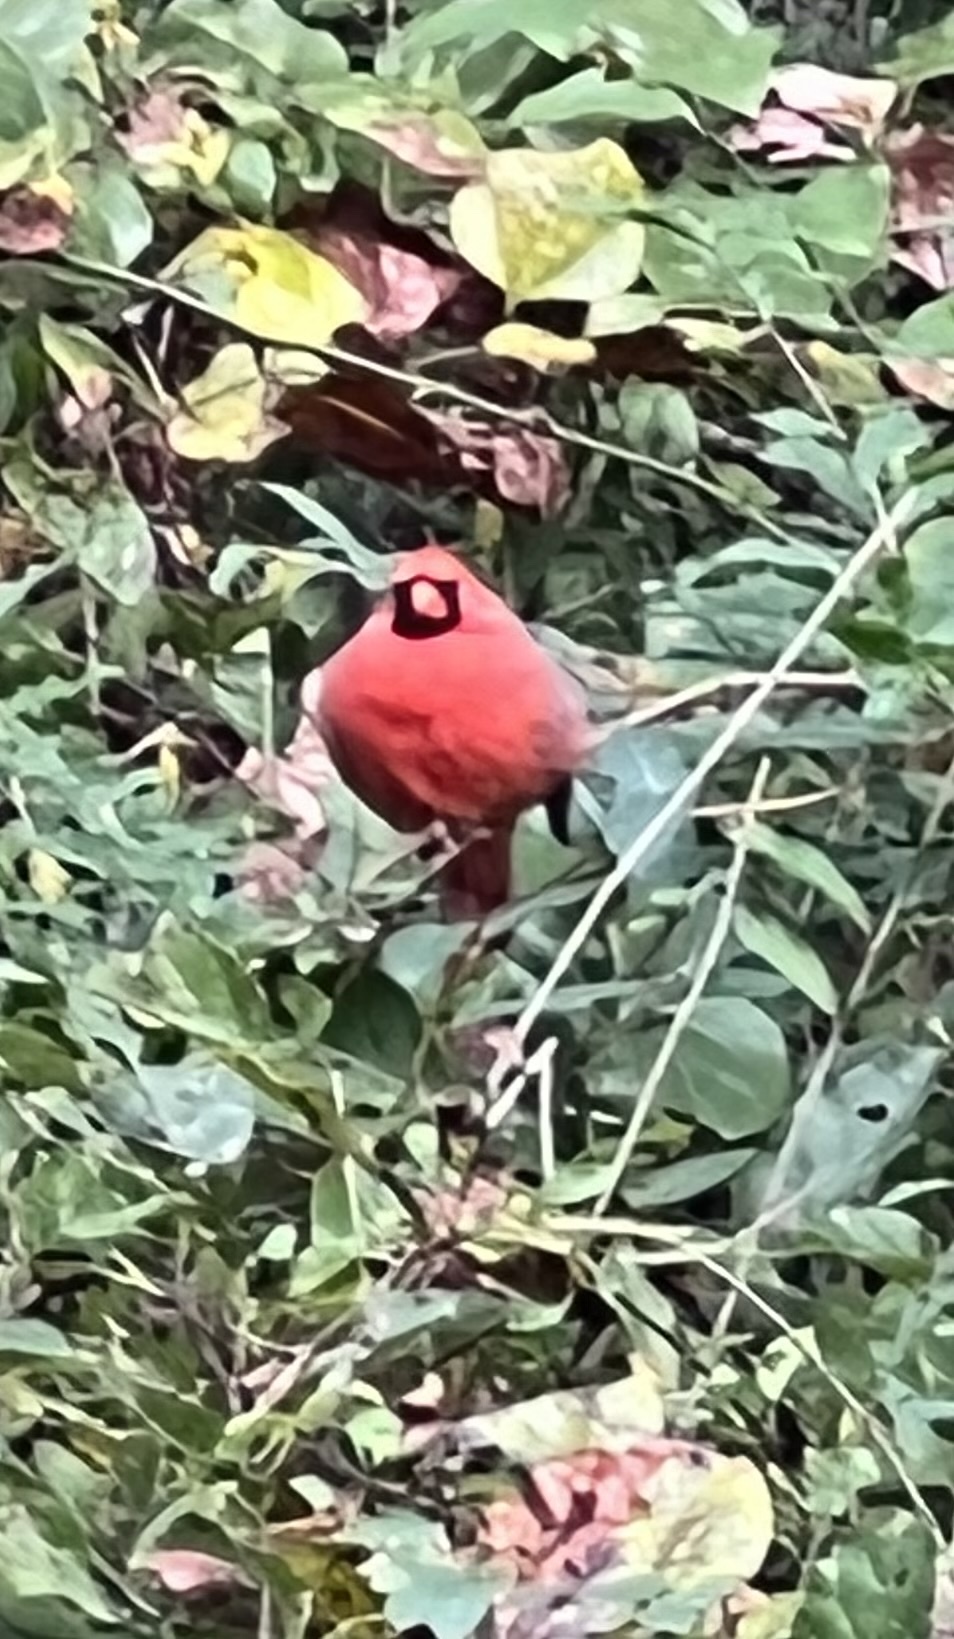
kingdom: Animalia
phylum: Chordata
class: Aves
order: Passeriformes
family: Cardinalidae
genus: Cardinalis
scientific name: Cardinalis cardinalis
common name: Northern cardinal
